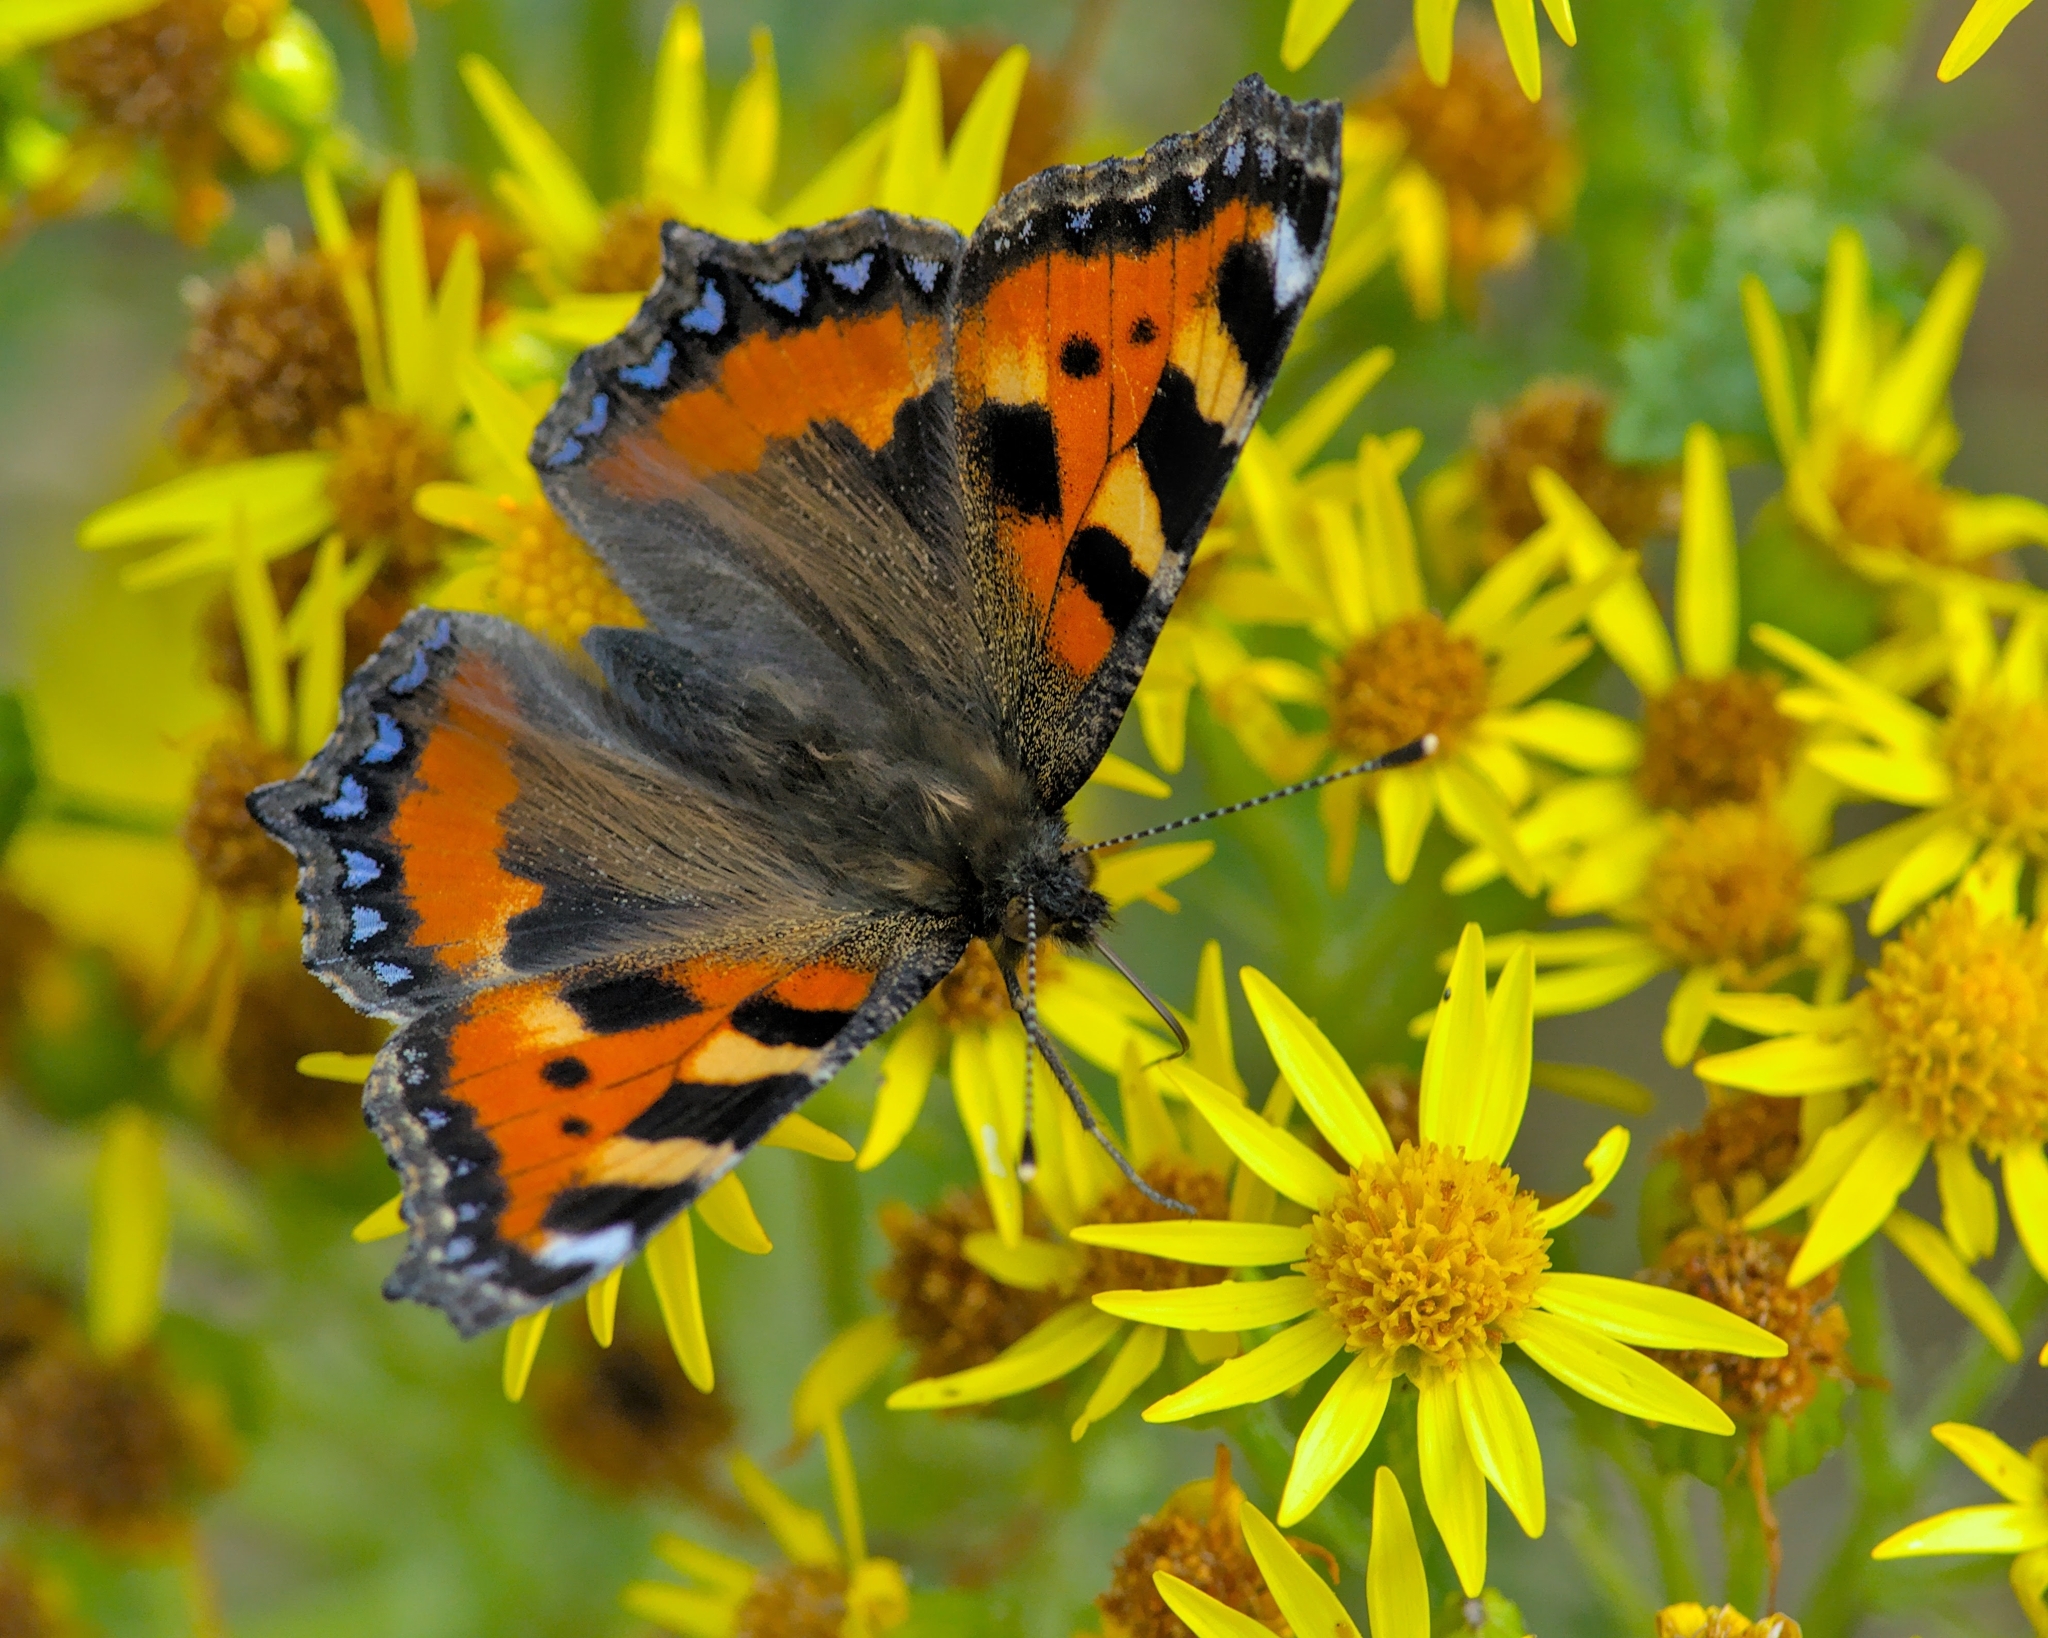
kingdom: Animalia
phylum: Arthropoda
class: Insecta
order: Lepidoptera
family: Nymphalidae
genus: Aglais
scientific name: Aglais urticae
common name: Small tortoiseshell
